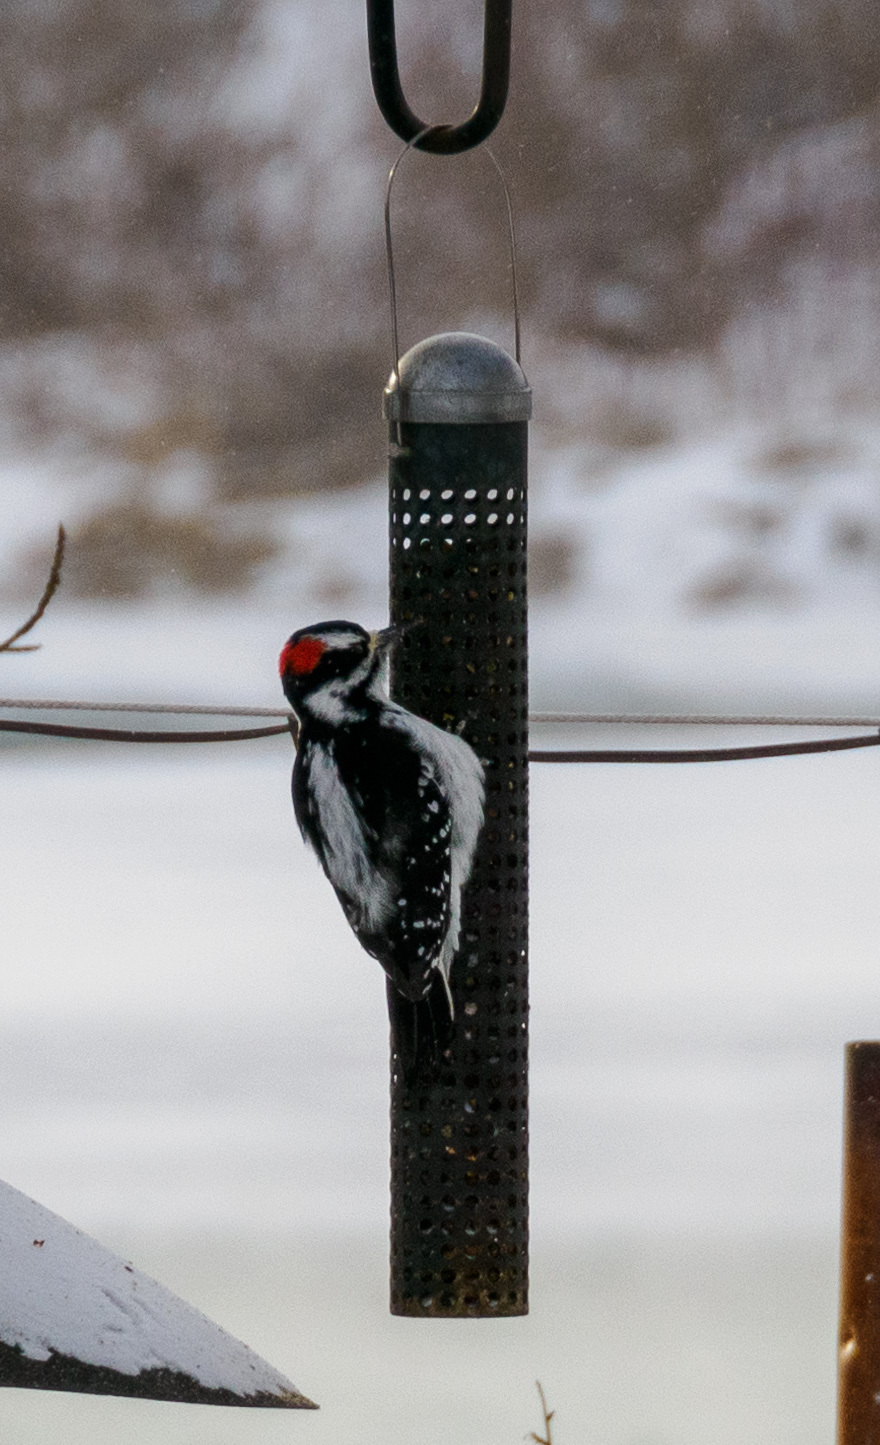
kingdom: Animalia
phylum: Chordata
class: Aves
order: Piciformes
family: Picidae
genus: Leuconotopicus
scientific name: Leuconotopicus villosus
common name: Hairy woodpecker
